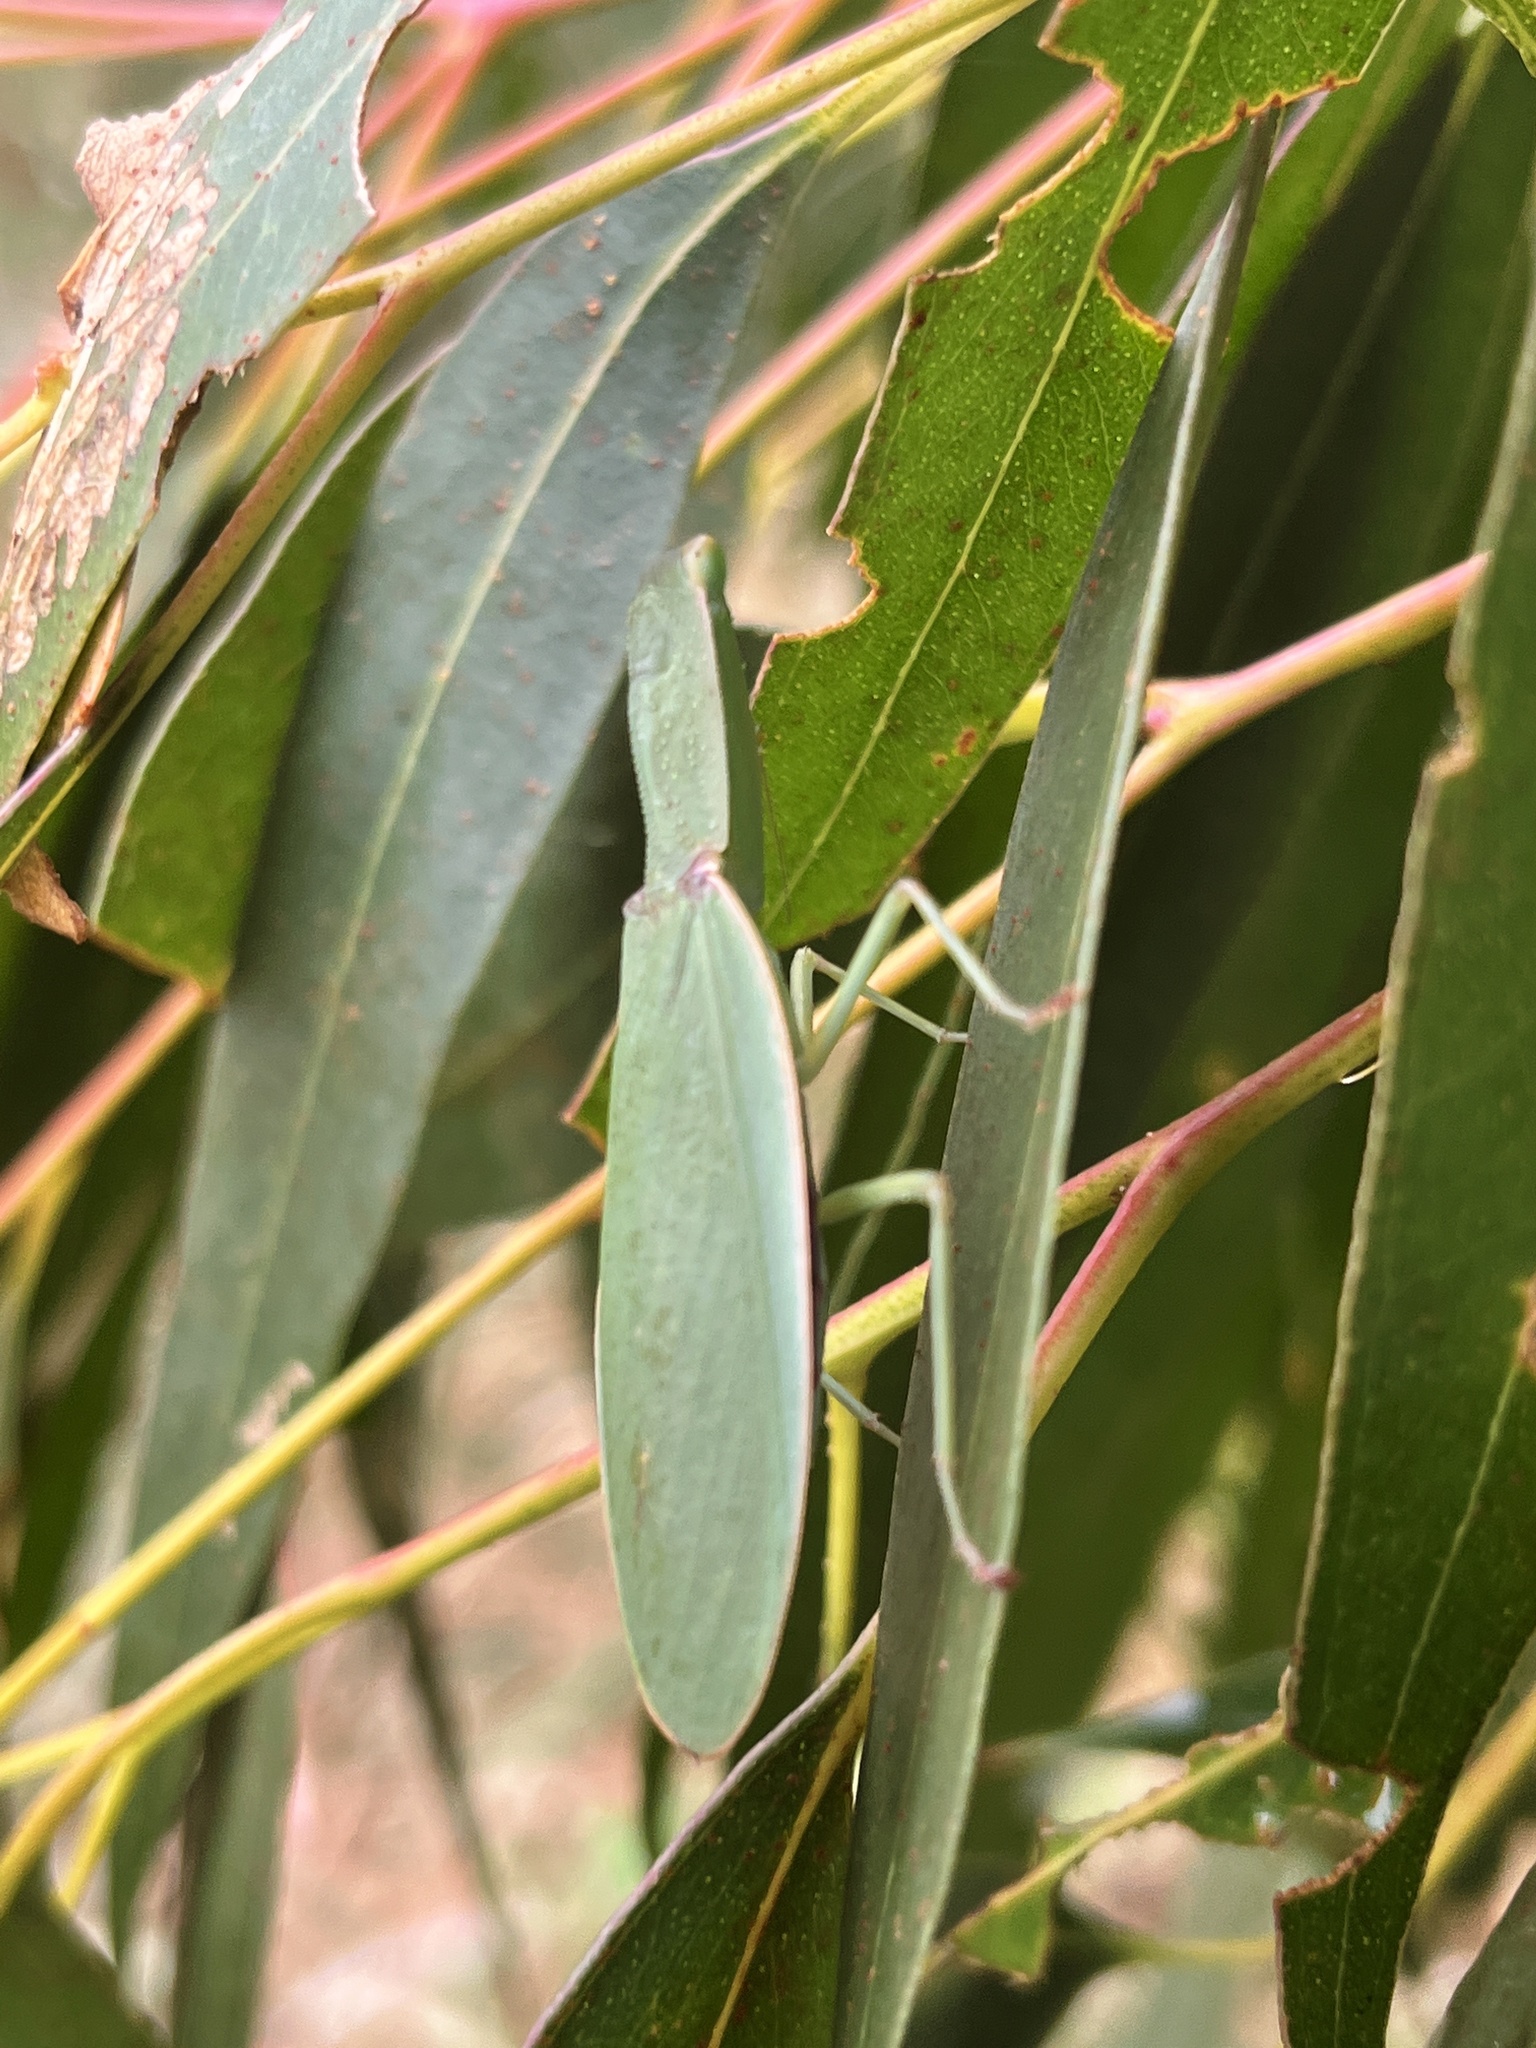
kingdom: Animalia
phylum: Arthropoda
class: Insecta
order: Mantodea
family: Mantidae
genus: Orthodera
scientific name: Orthodera novaezealandiae
